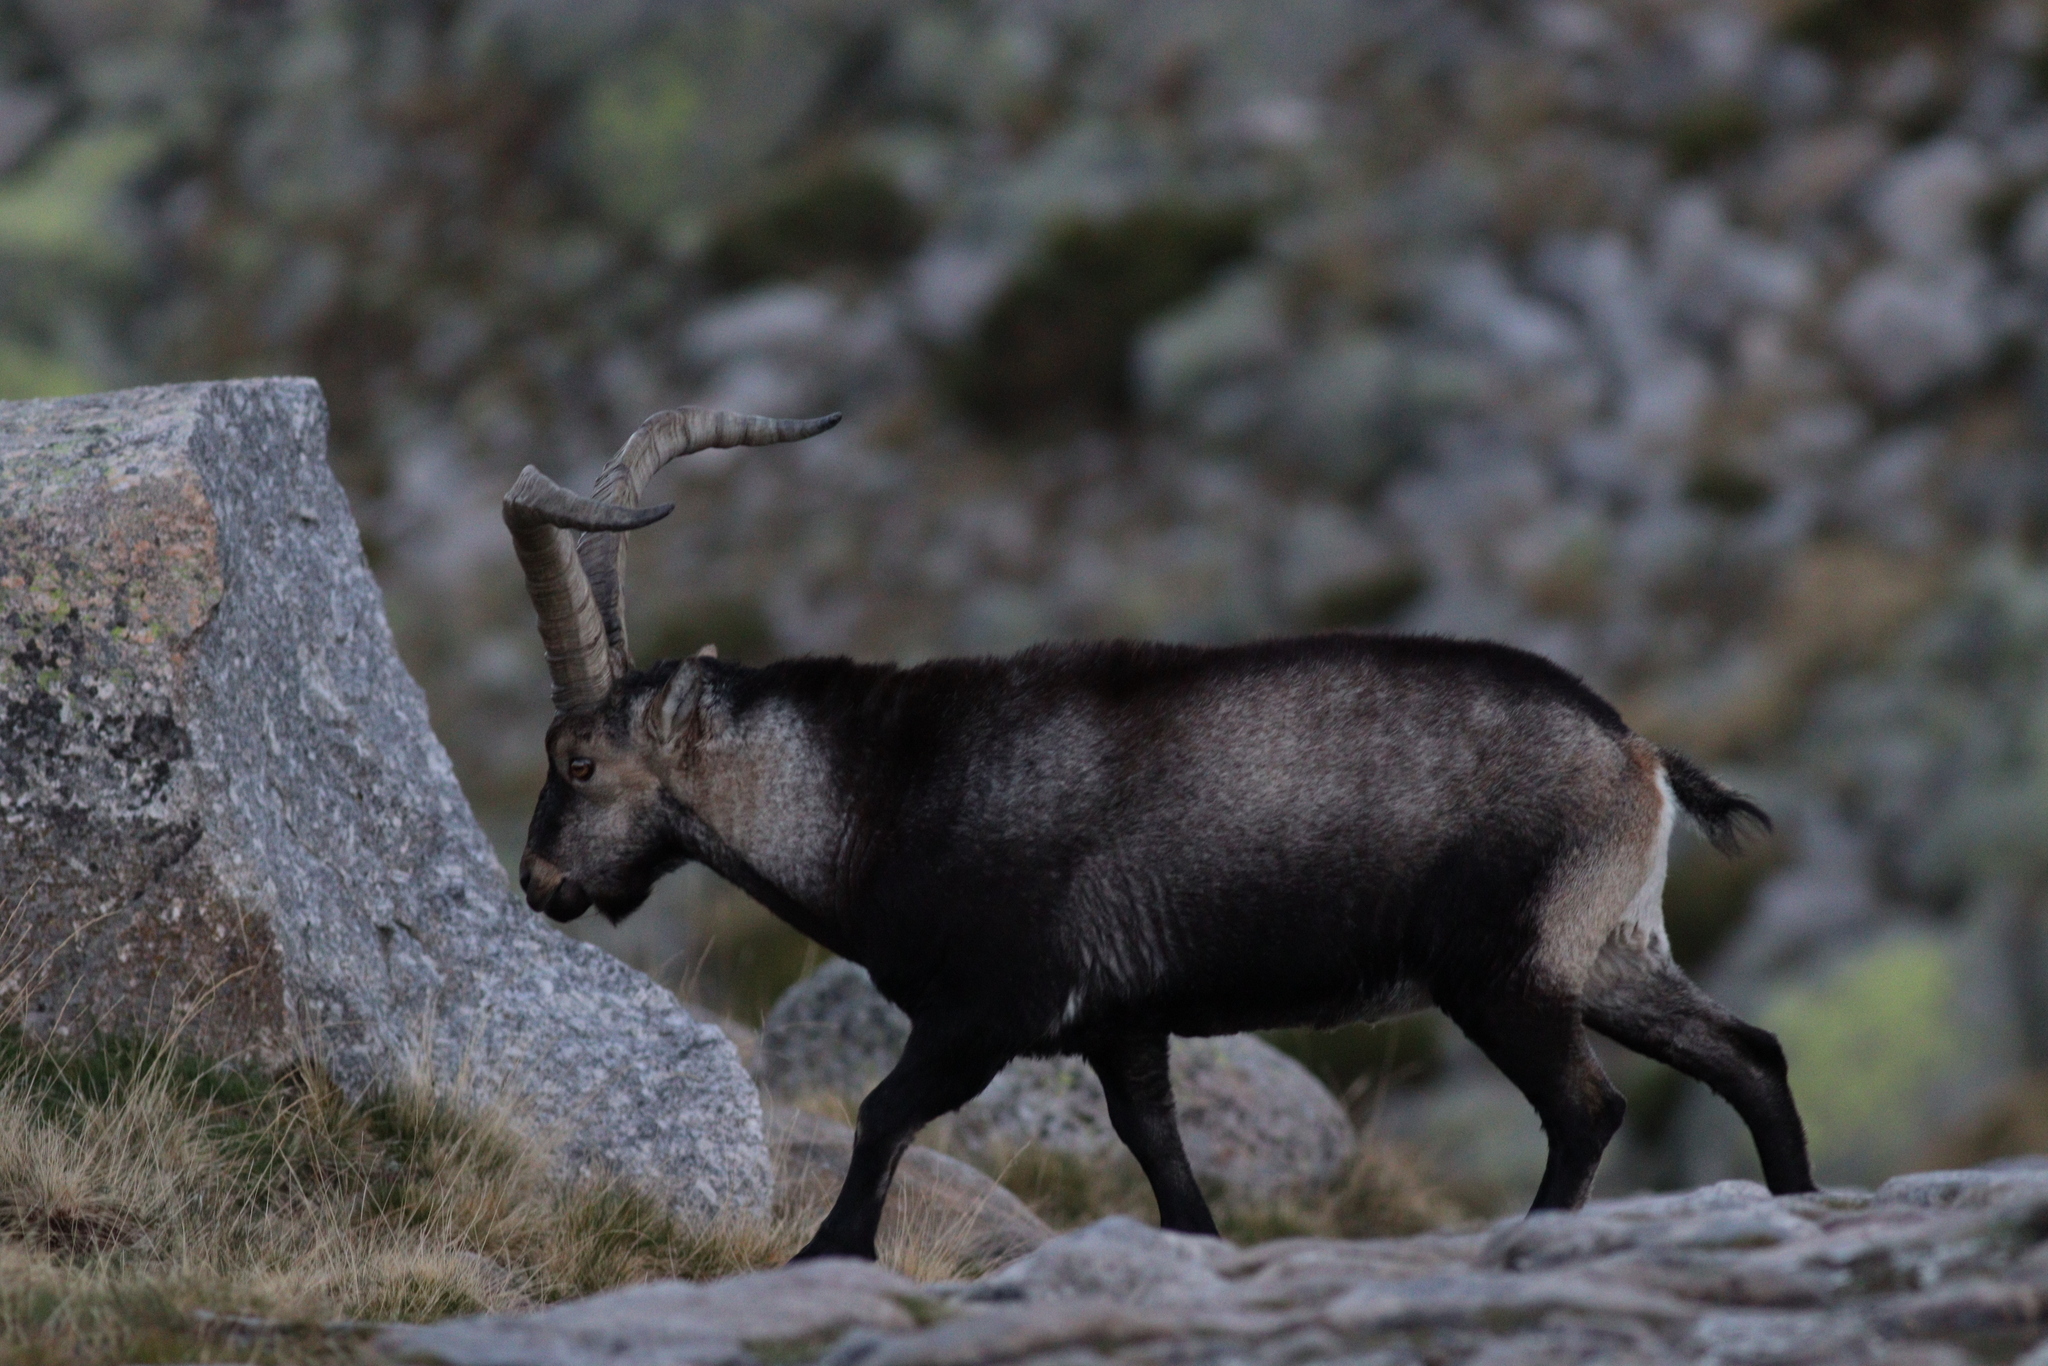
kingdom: Animalia
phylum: Chordata
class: Mammalia
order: Artiodactyla
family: Bovidae
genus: Capra
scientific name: Capra pyrenaica
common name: Spanish ibex
